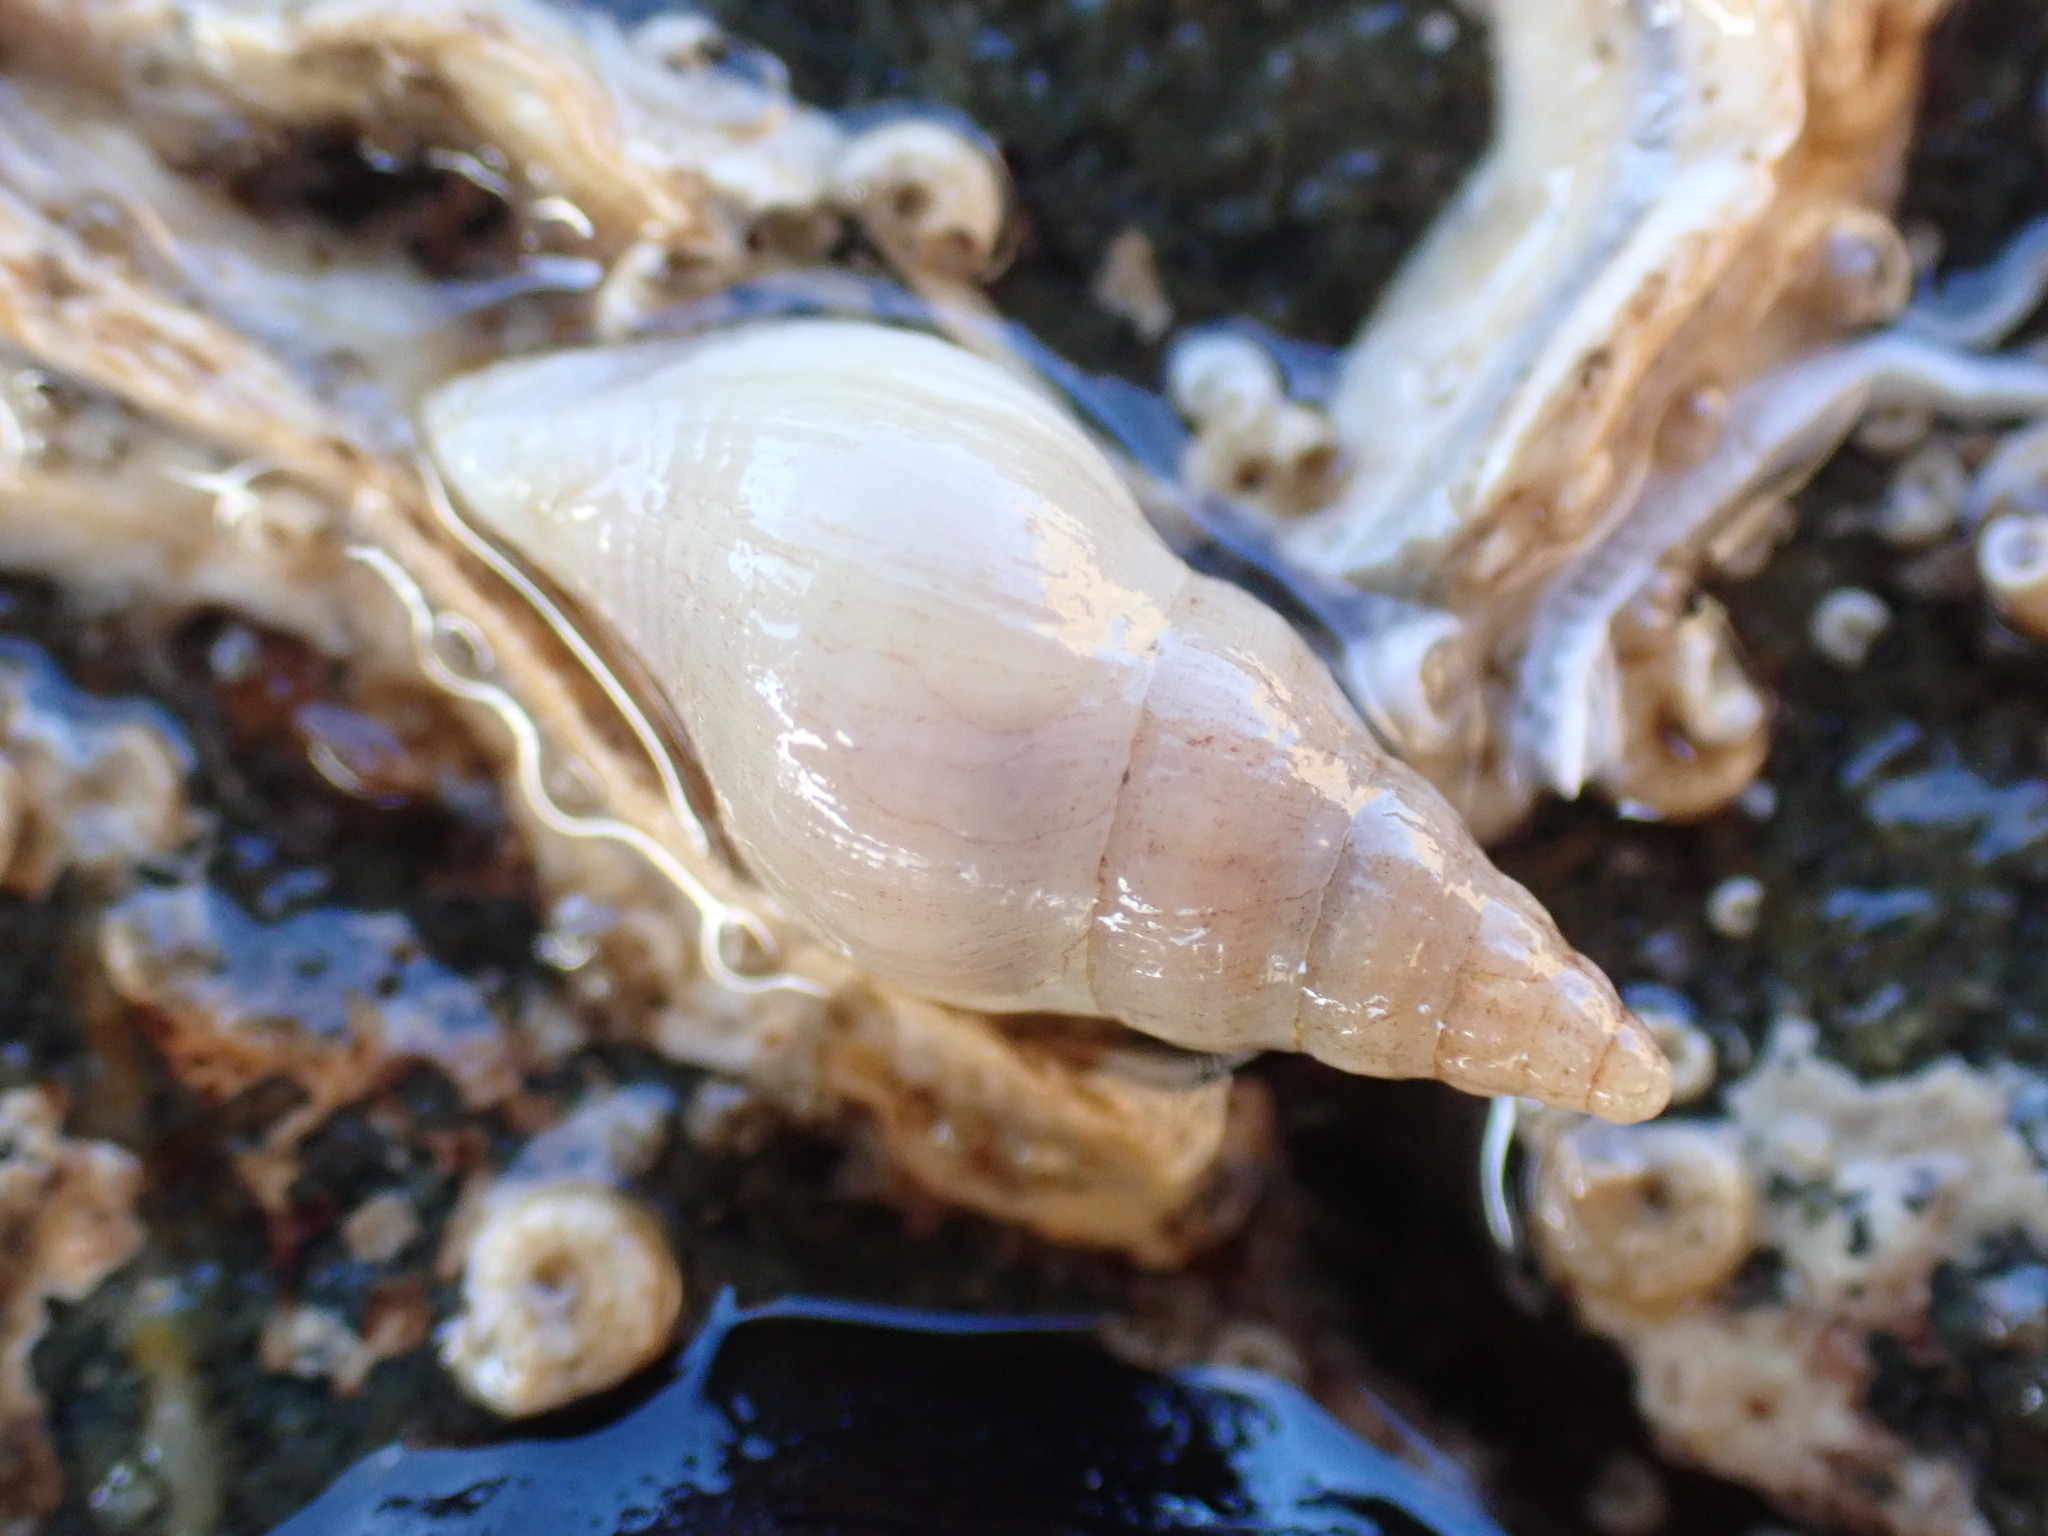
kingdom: Animalia
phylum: Mollusca
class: Gastropoda
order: Neogastropoda
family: Tudiclidae
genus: Buccinulum
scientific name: Buccinulum littorinoides
